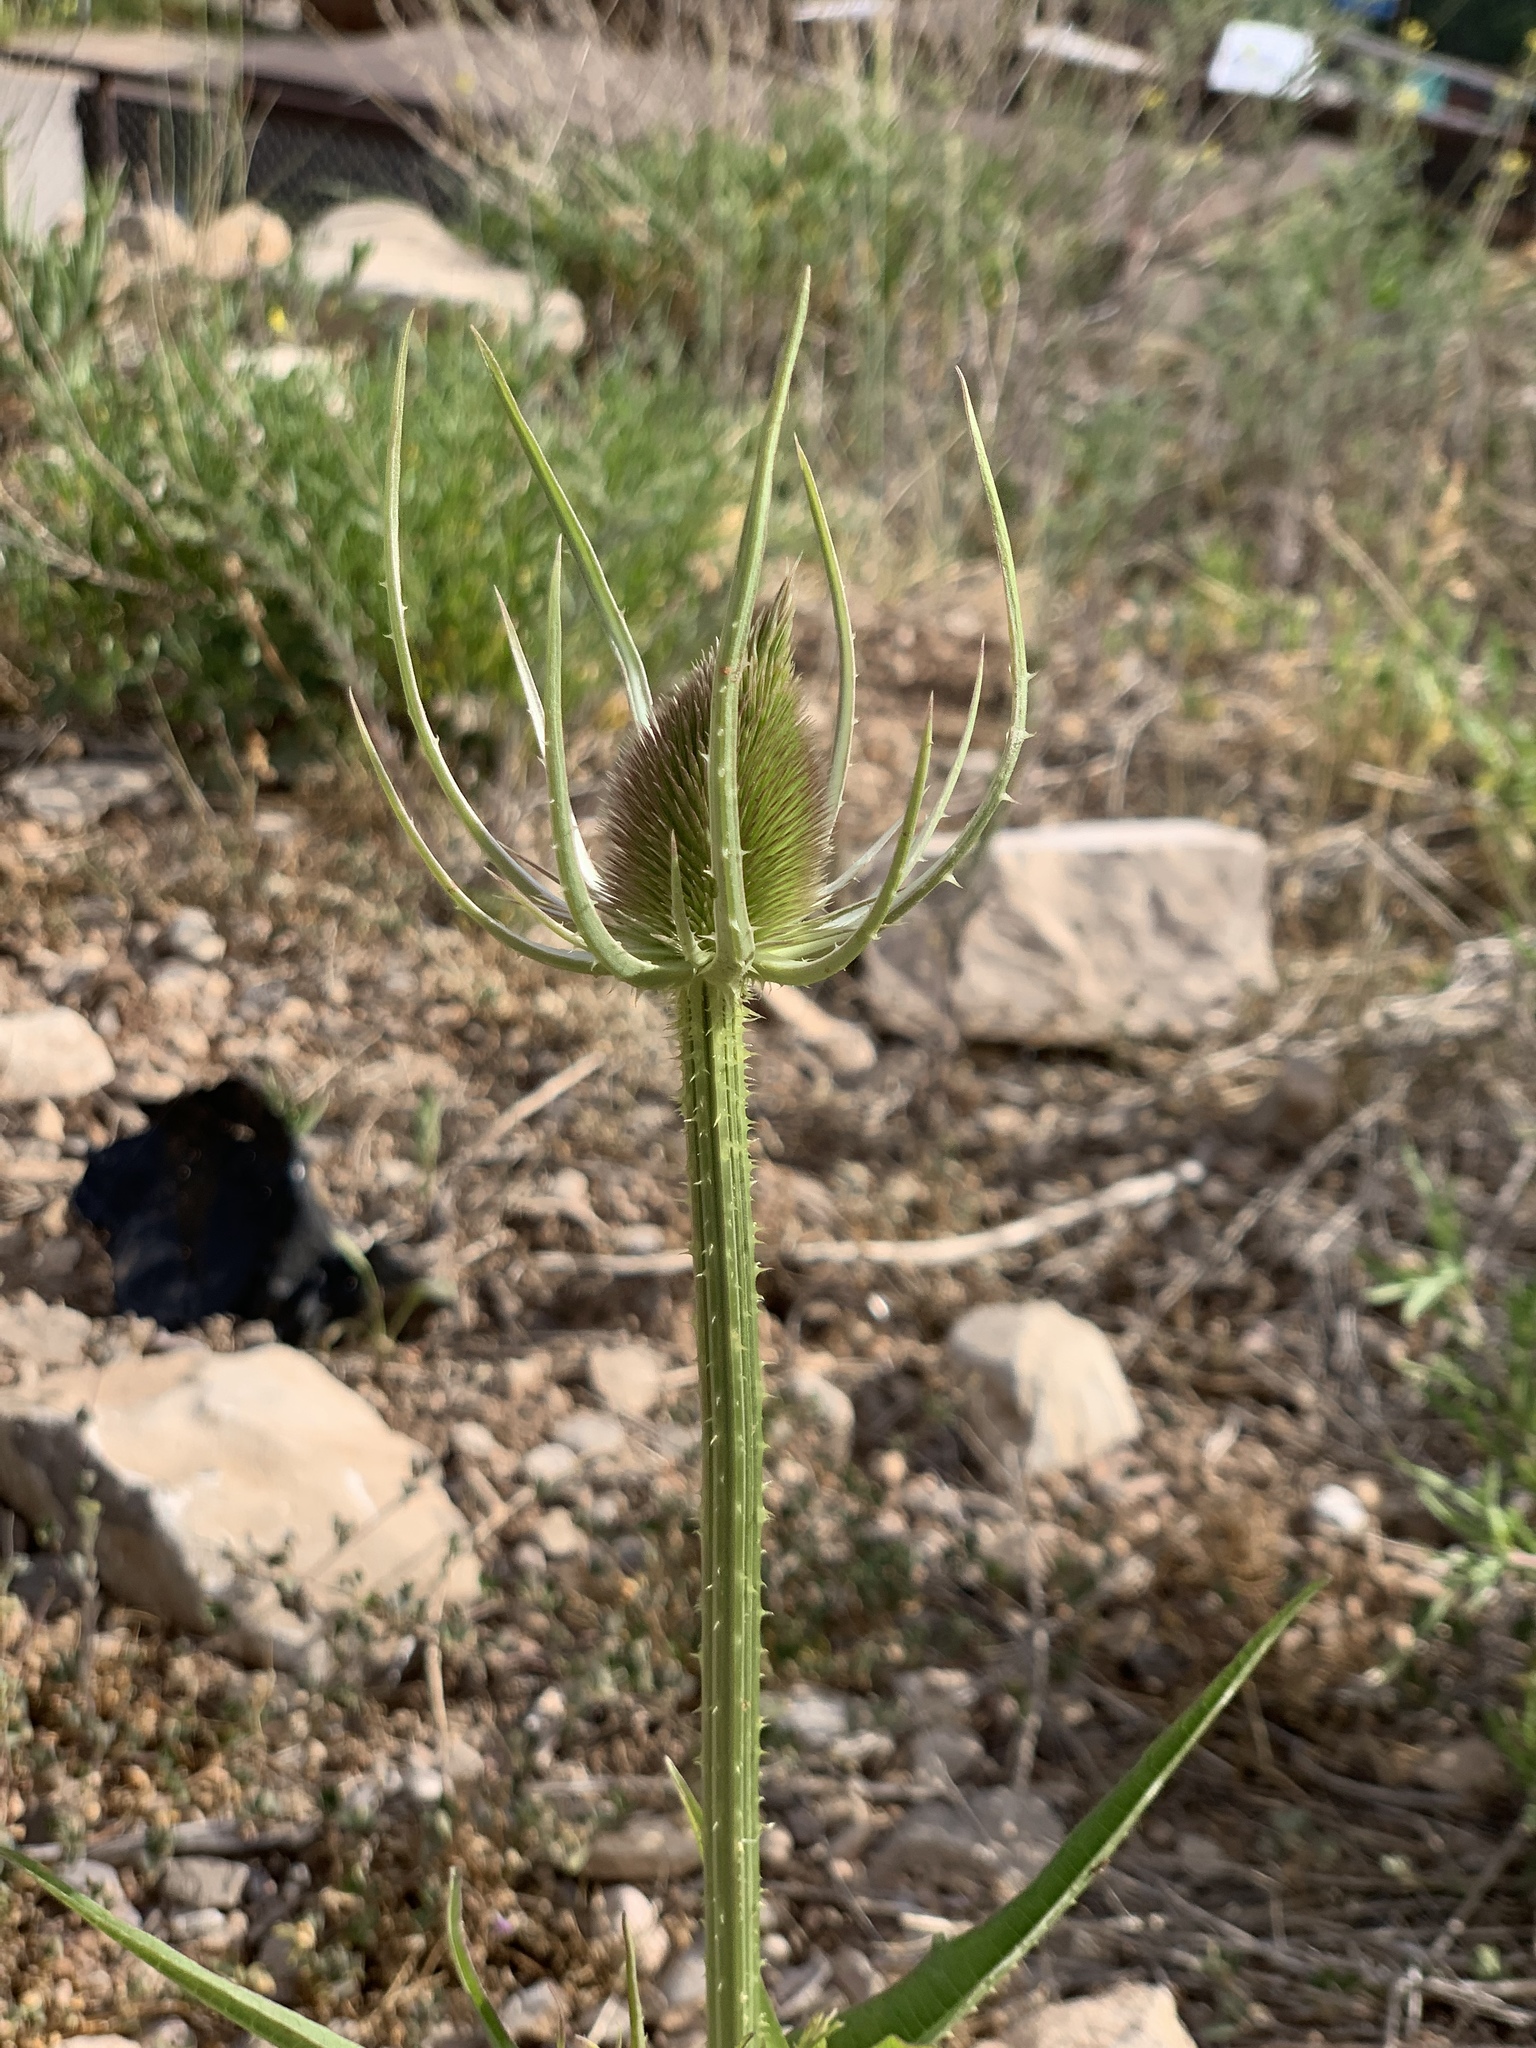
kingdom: Plantae
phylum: Tracheophyta
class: Magnoliopsida
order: Dipsacales
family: Caprifoliaceae
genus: Dipsacus
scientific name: Dipsacus fullonum
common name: Teasel
